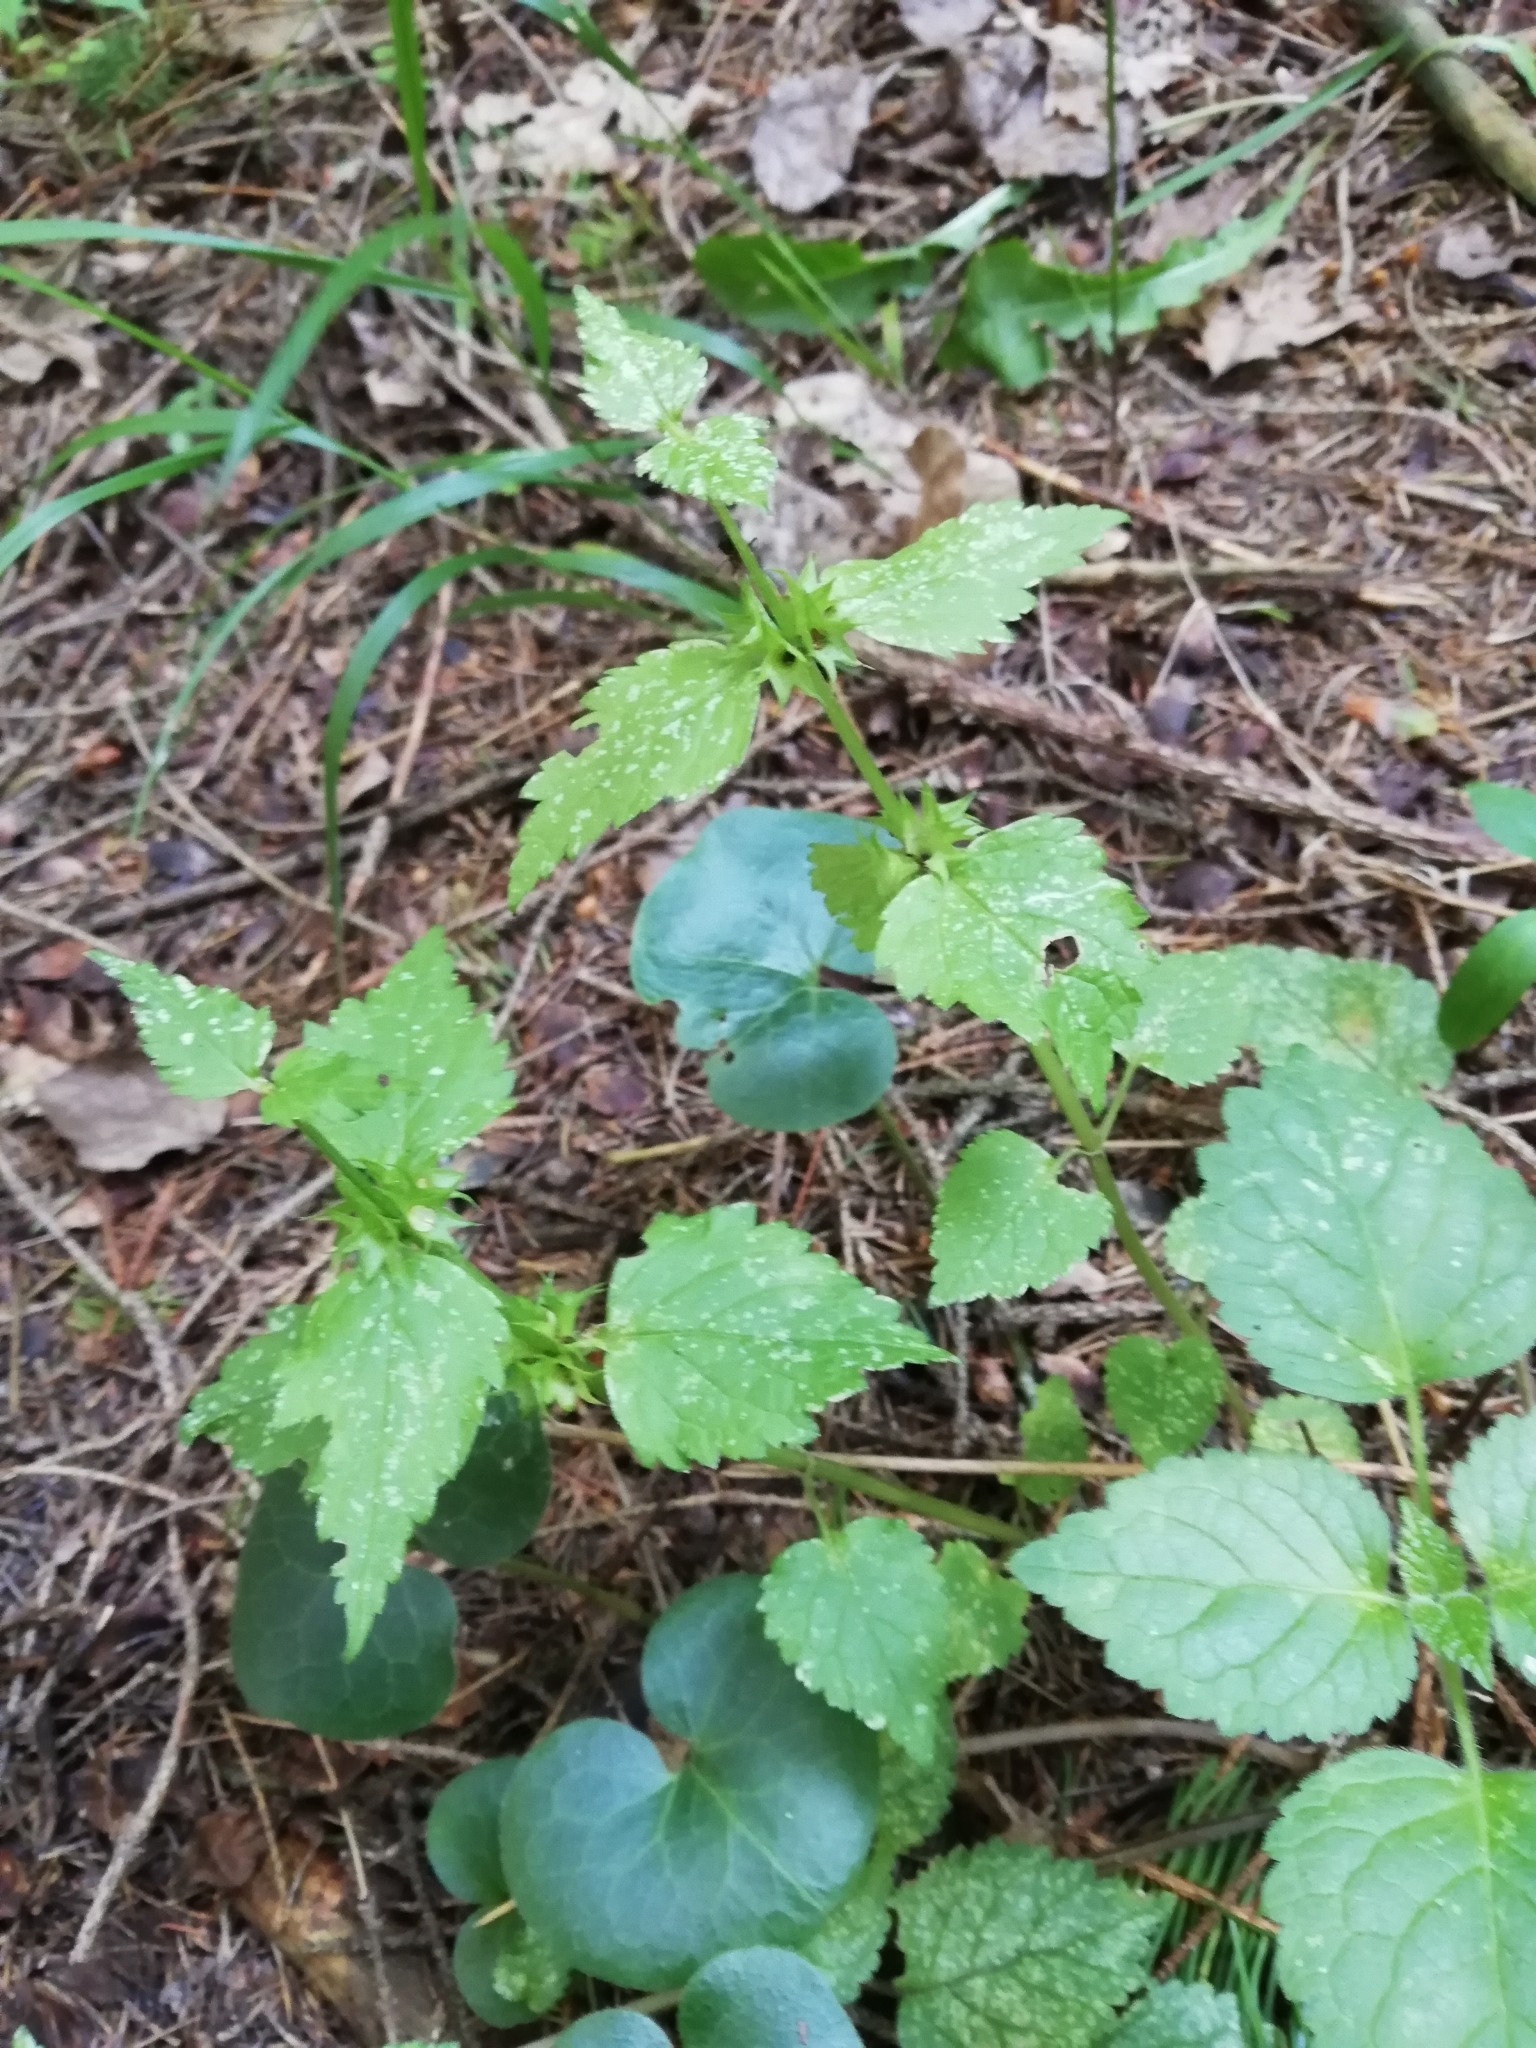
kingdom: Plantae
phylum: Tracheophyta
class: Magnoliopsida
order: Lamiales
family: Lamiaceae
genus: Lamium
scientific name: Lamium galeobdolon
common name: Yellow archangel
